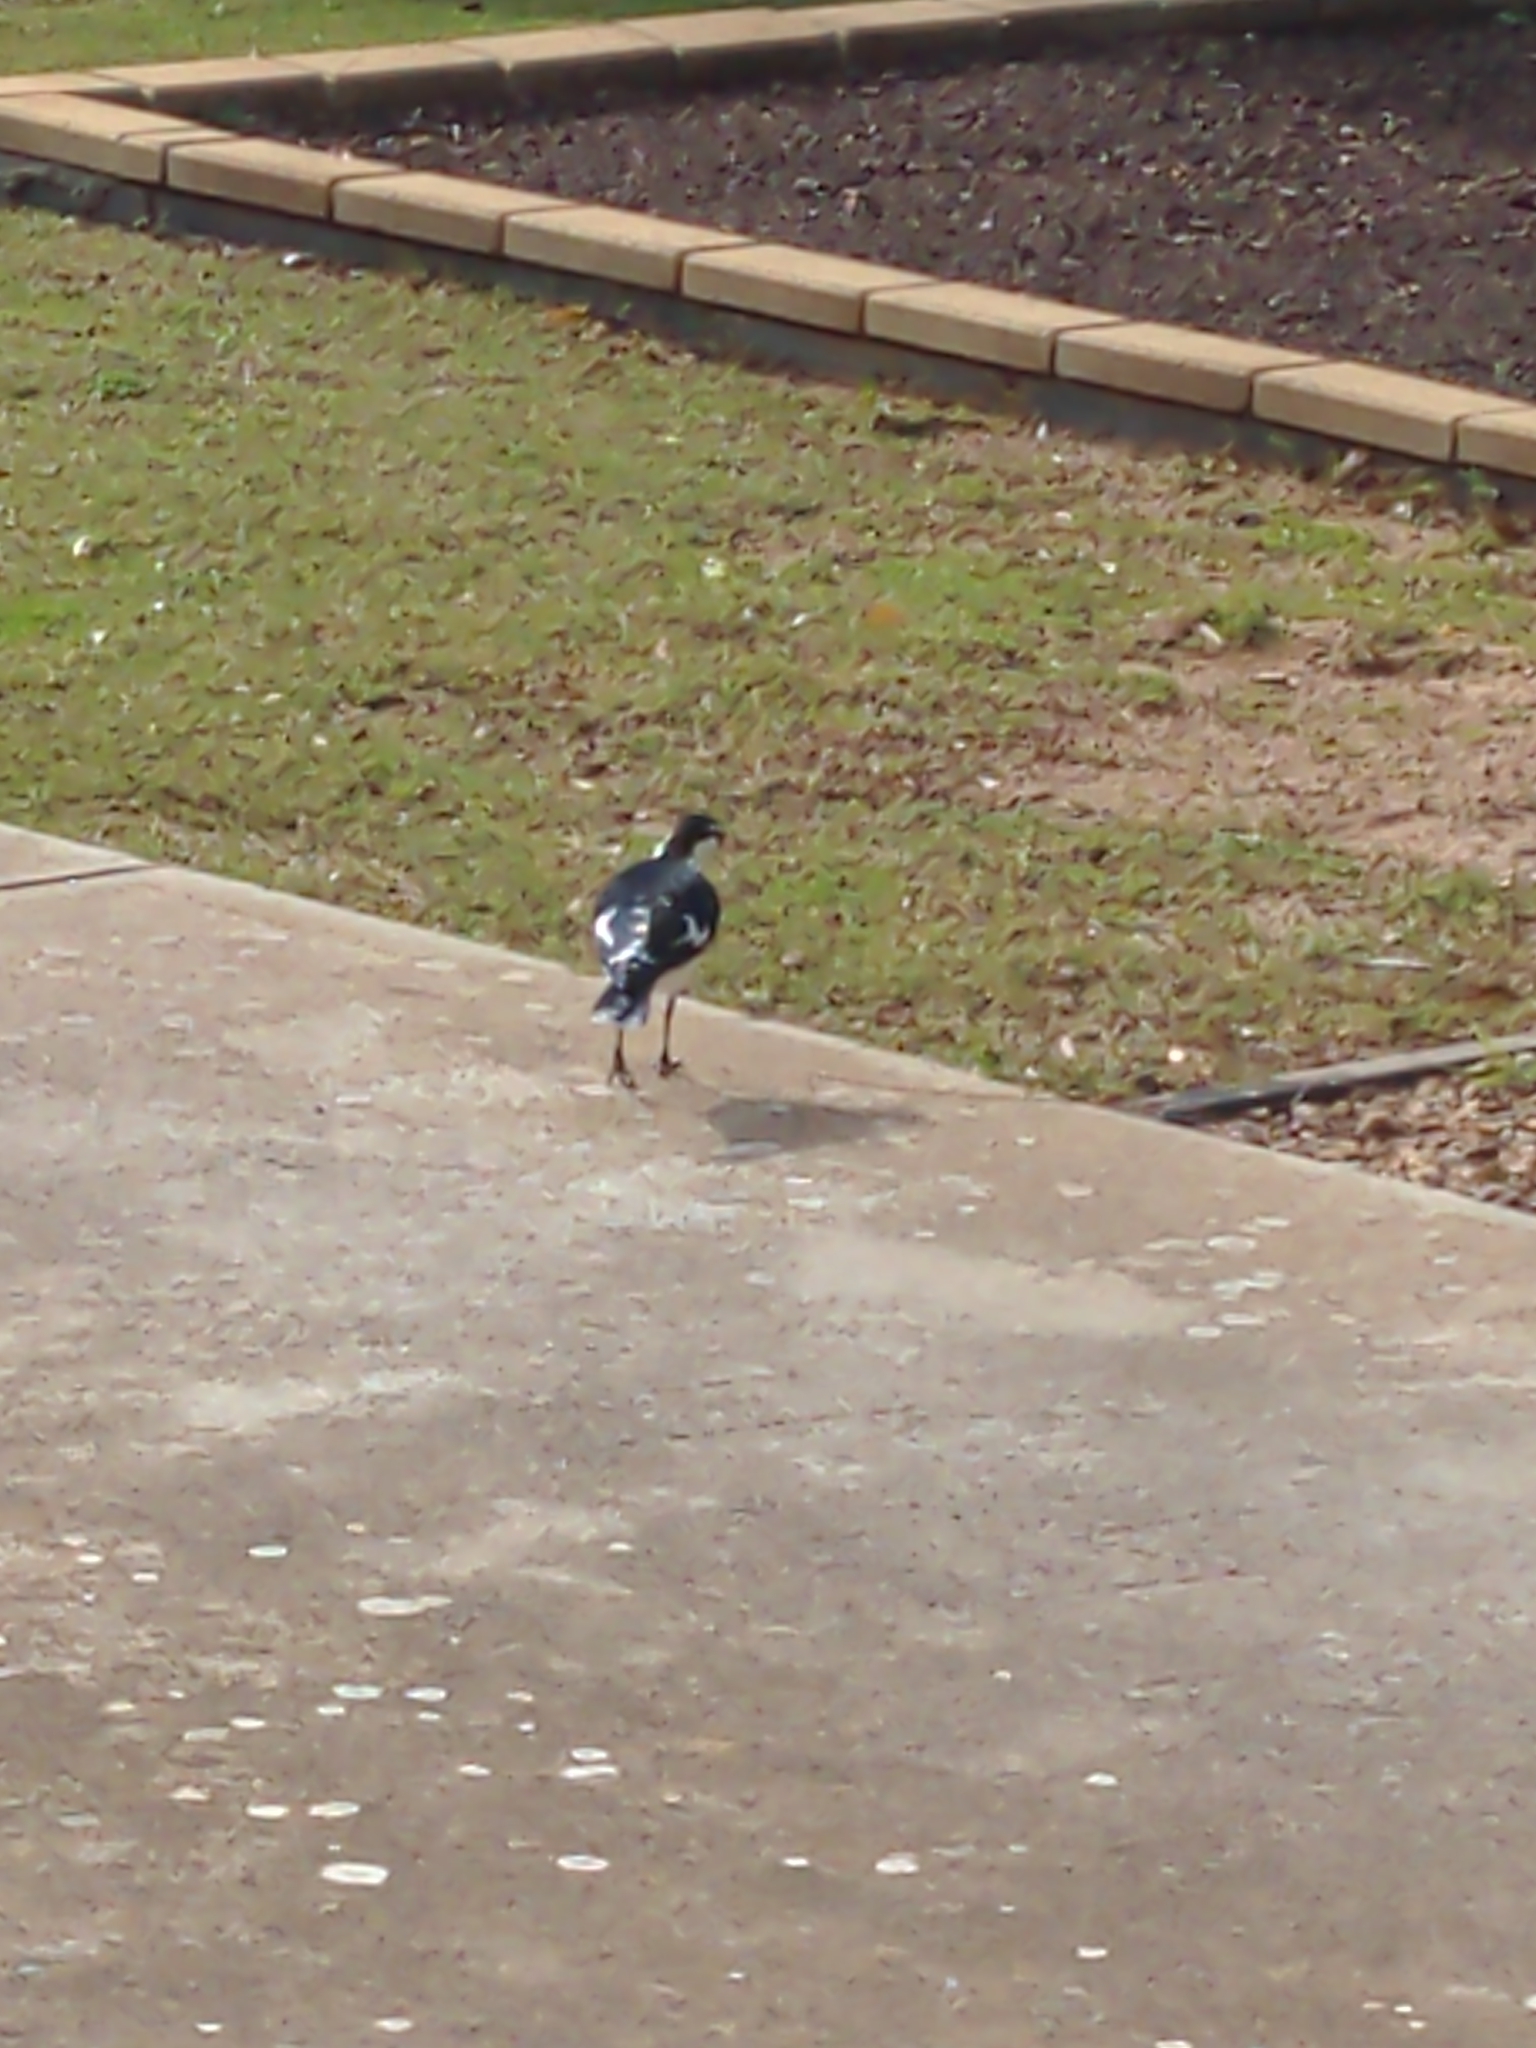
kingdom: Animalia
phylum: Chordata
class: Aves
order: Passeriformes
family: Monarchidae
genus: Grallina
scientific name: Grallina cyanoleuca
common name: Magpie-lark
